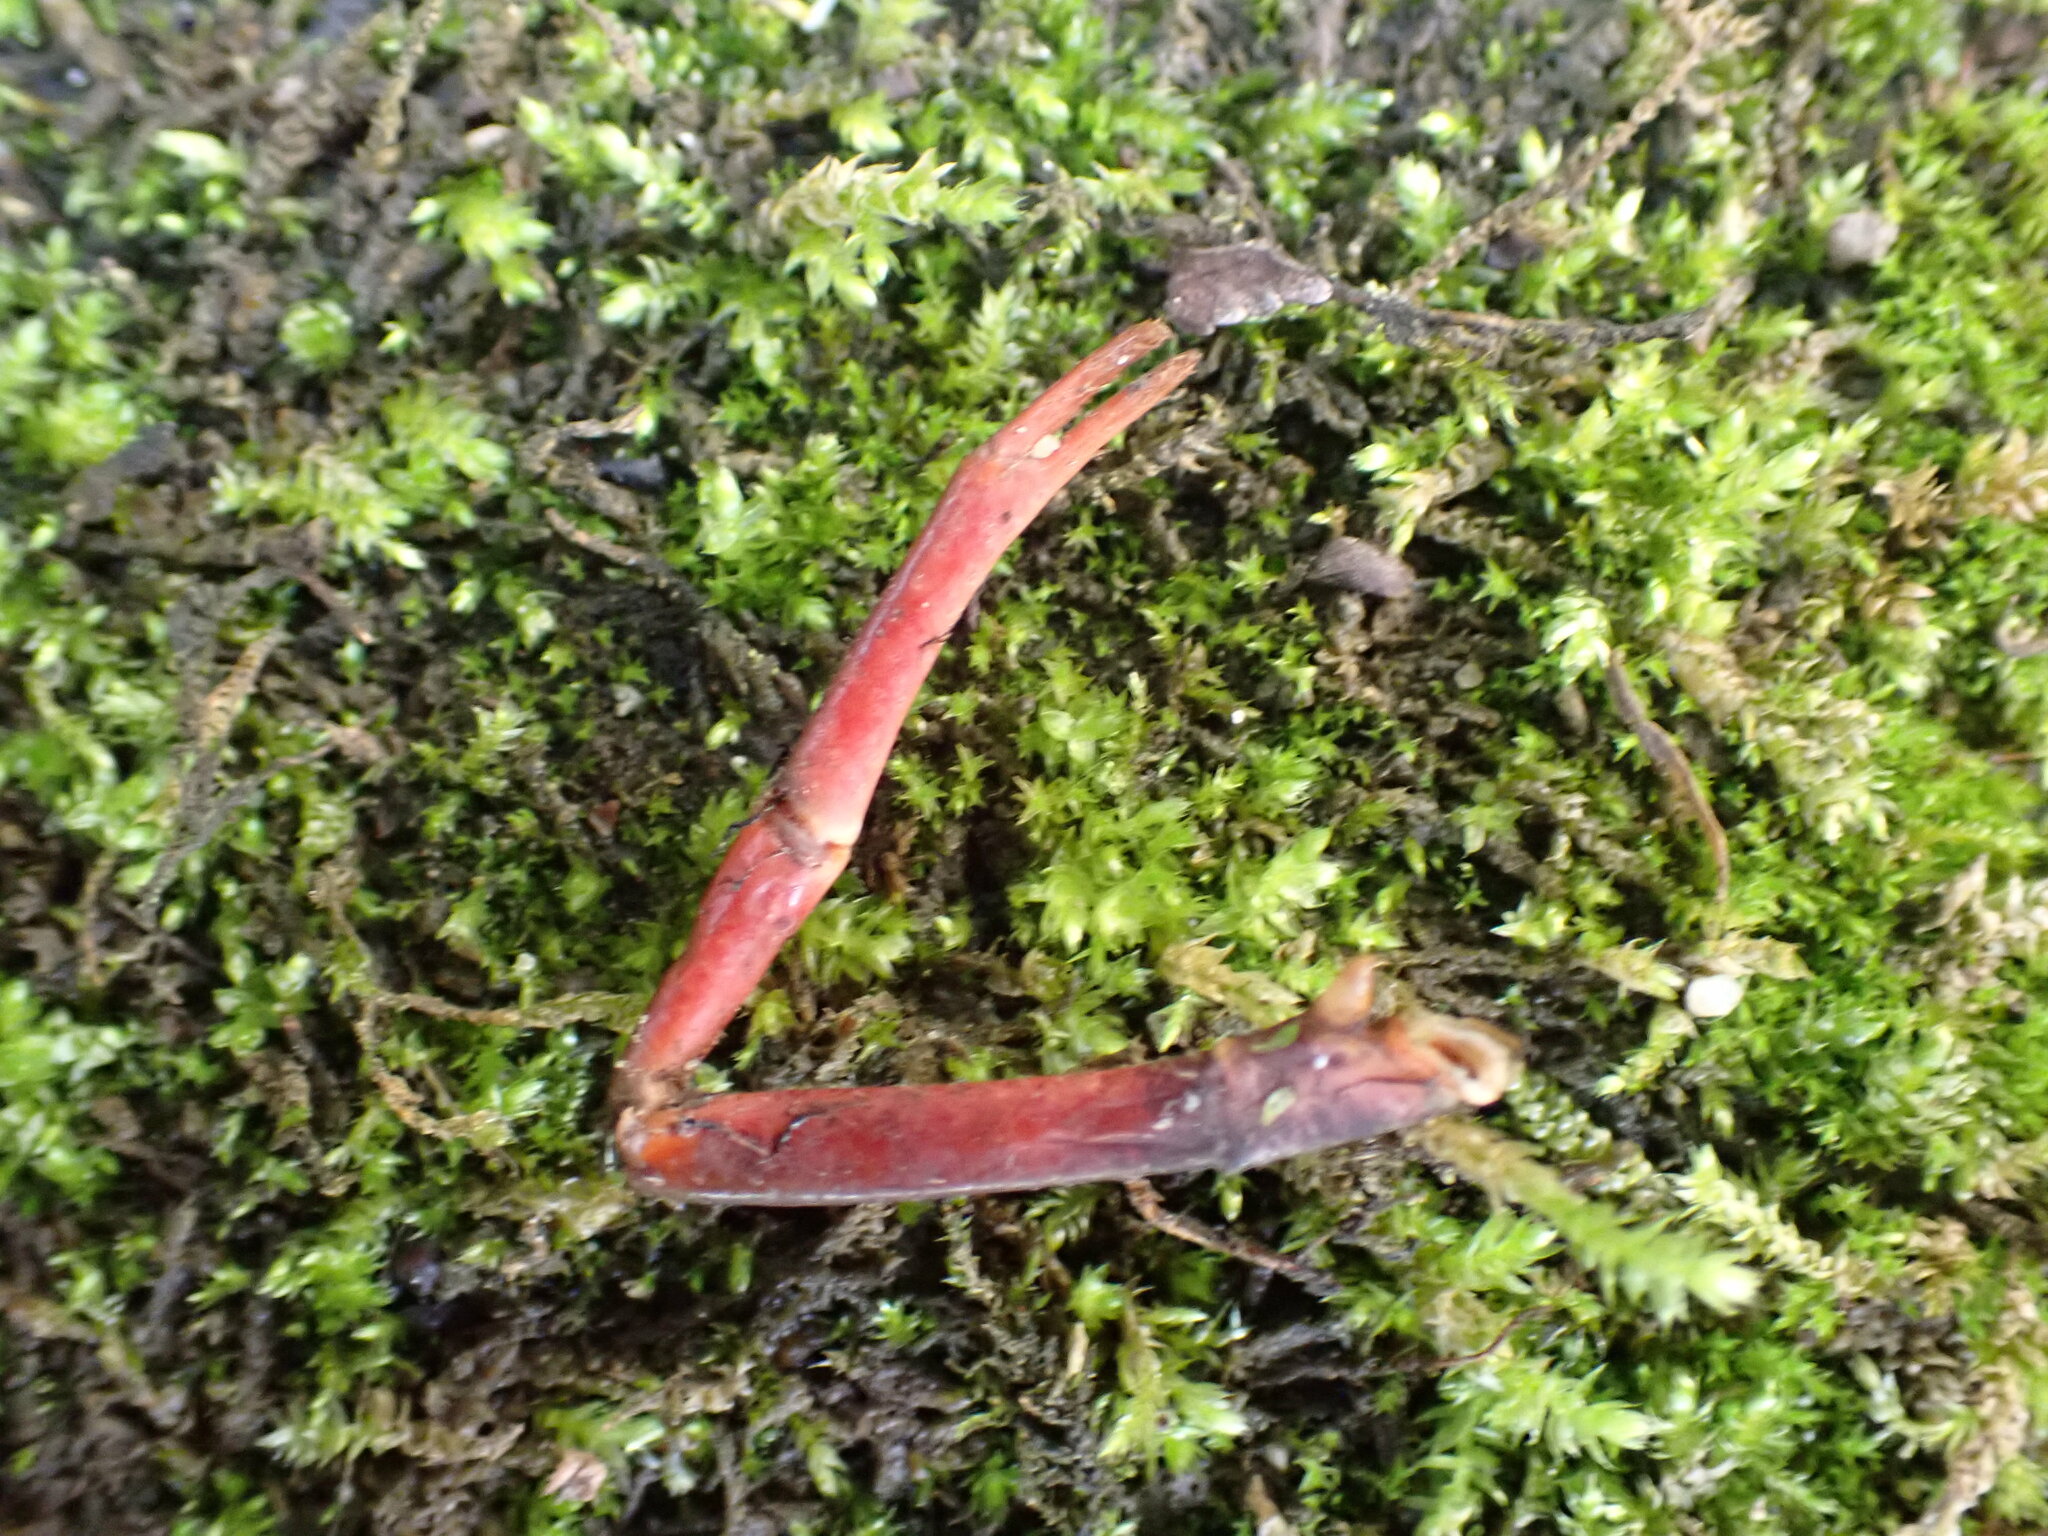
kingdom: Animalia
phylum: Arthropoda
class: Malacostraca
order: Decapoda
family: Cambaridae
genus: Procambarus
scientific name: Procambarus clarkii
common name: Red swamp crayfish
